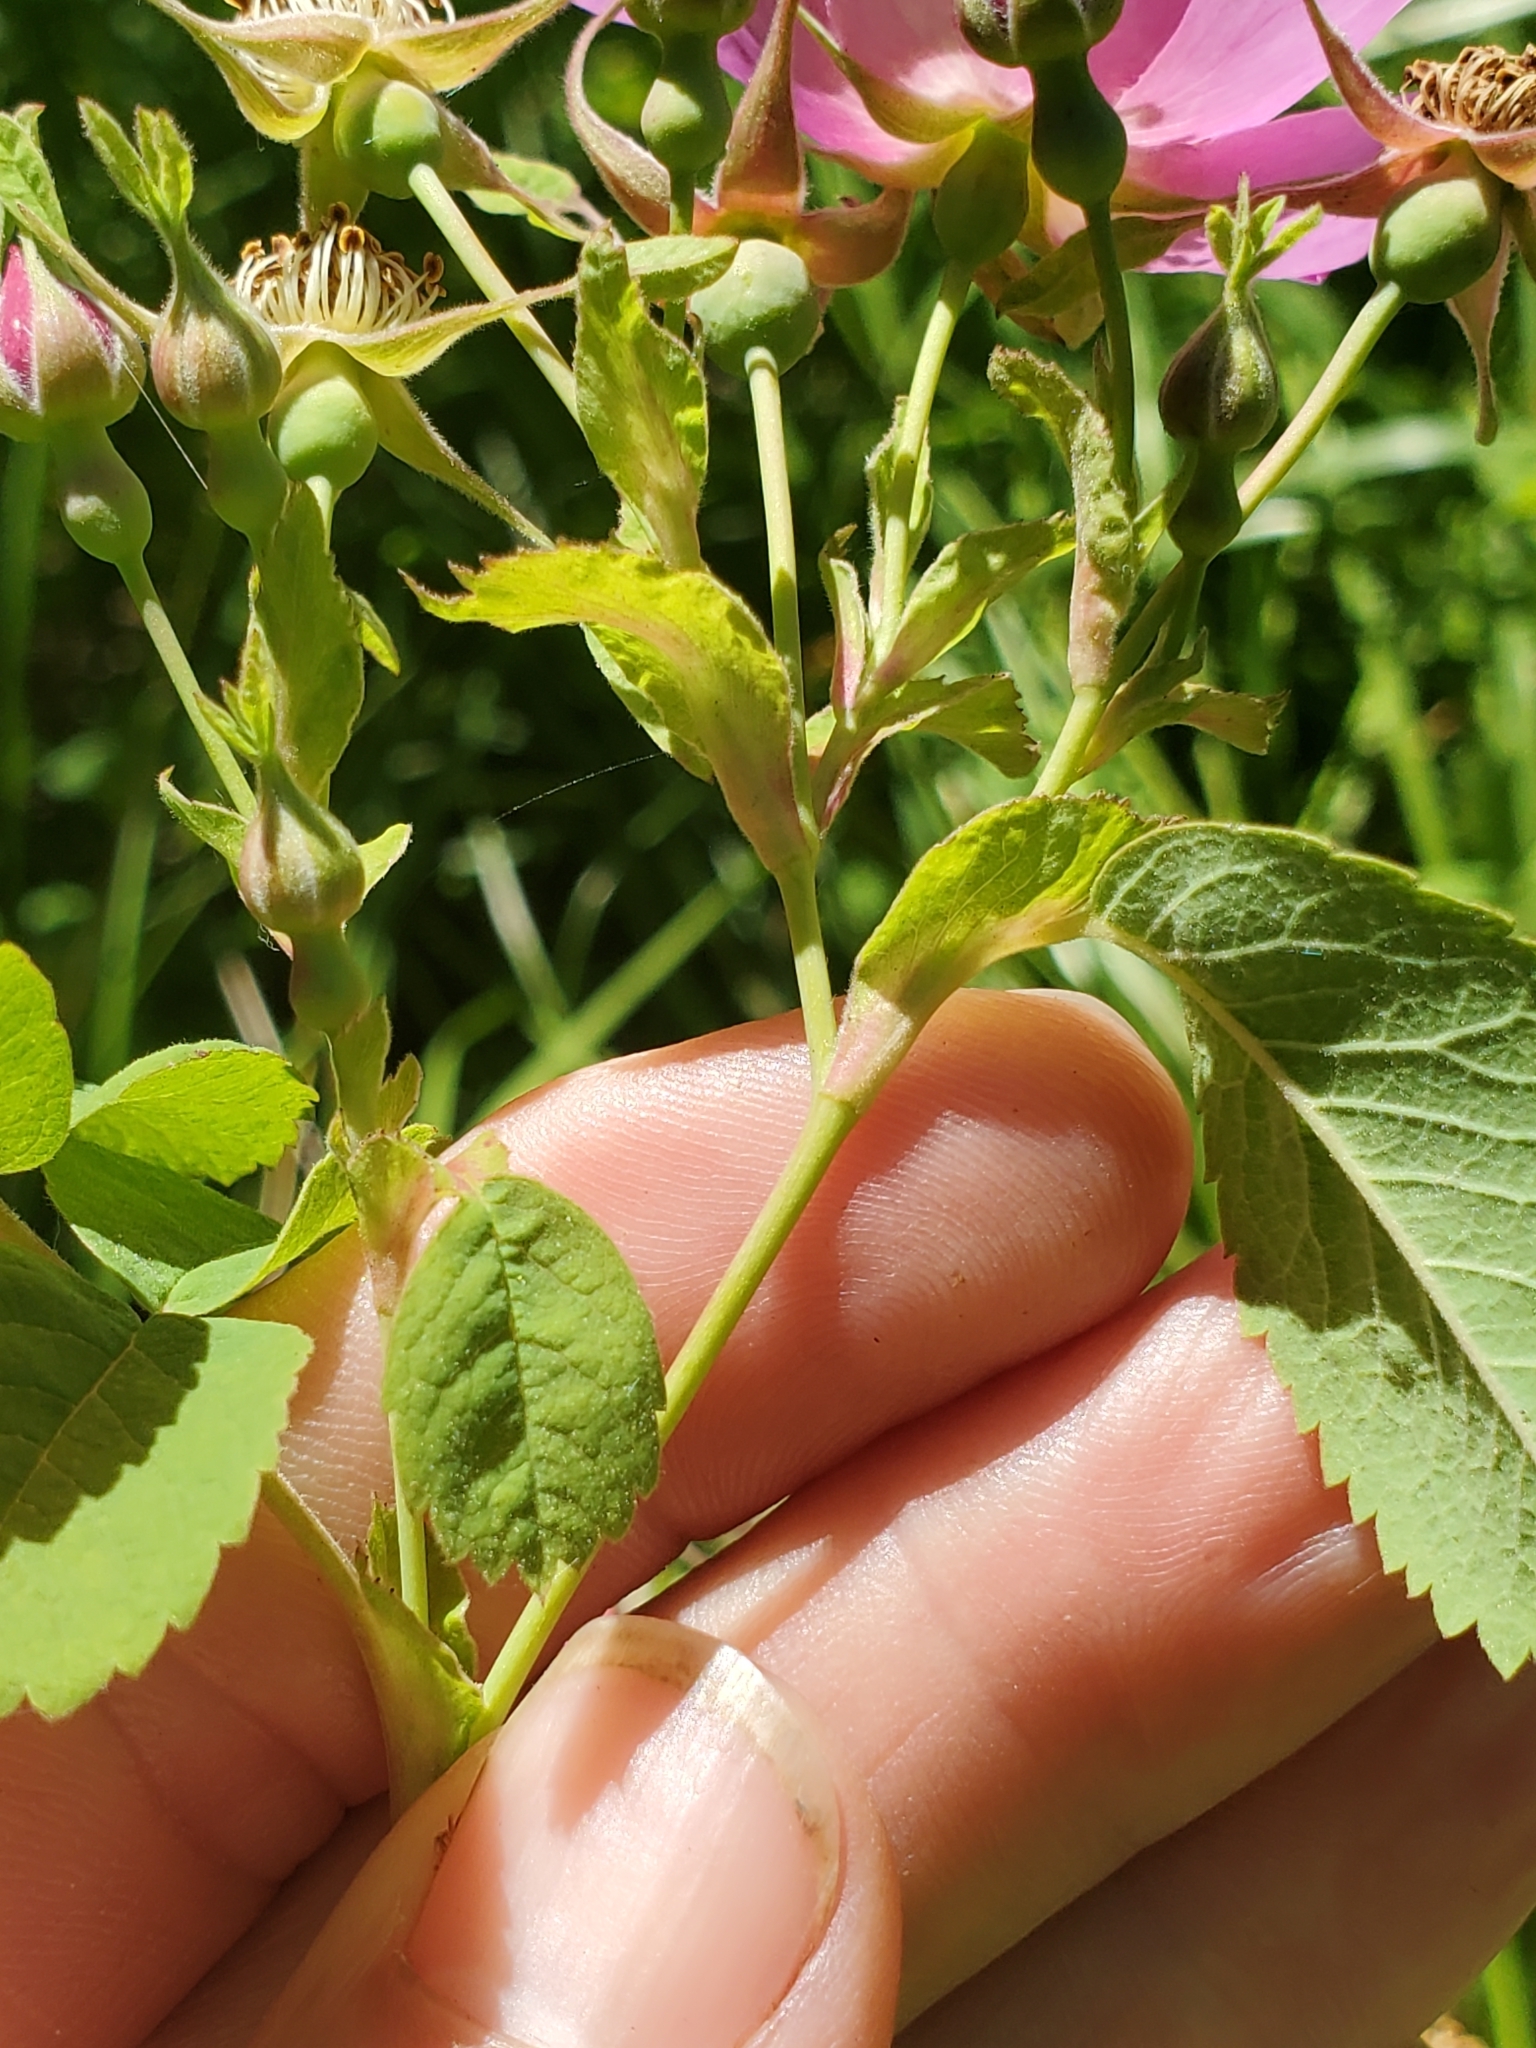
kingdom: Plantae
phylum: Tracheophyta
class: Magnoliopsida
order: Rosales
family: Rosaceae
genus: Rosa
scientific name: Rosa nutkana
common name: Nootka rose
